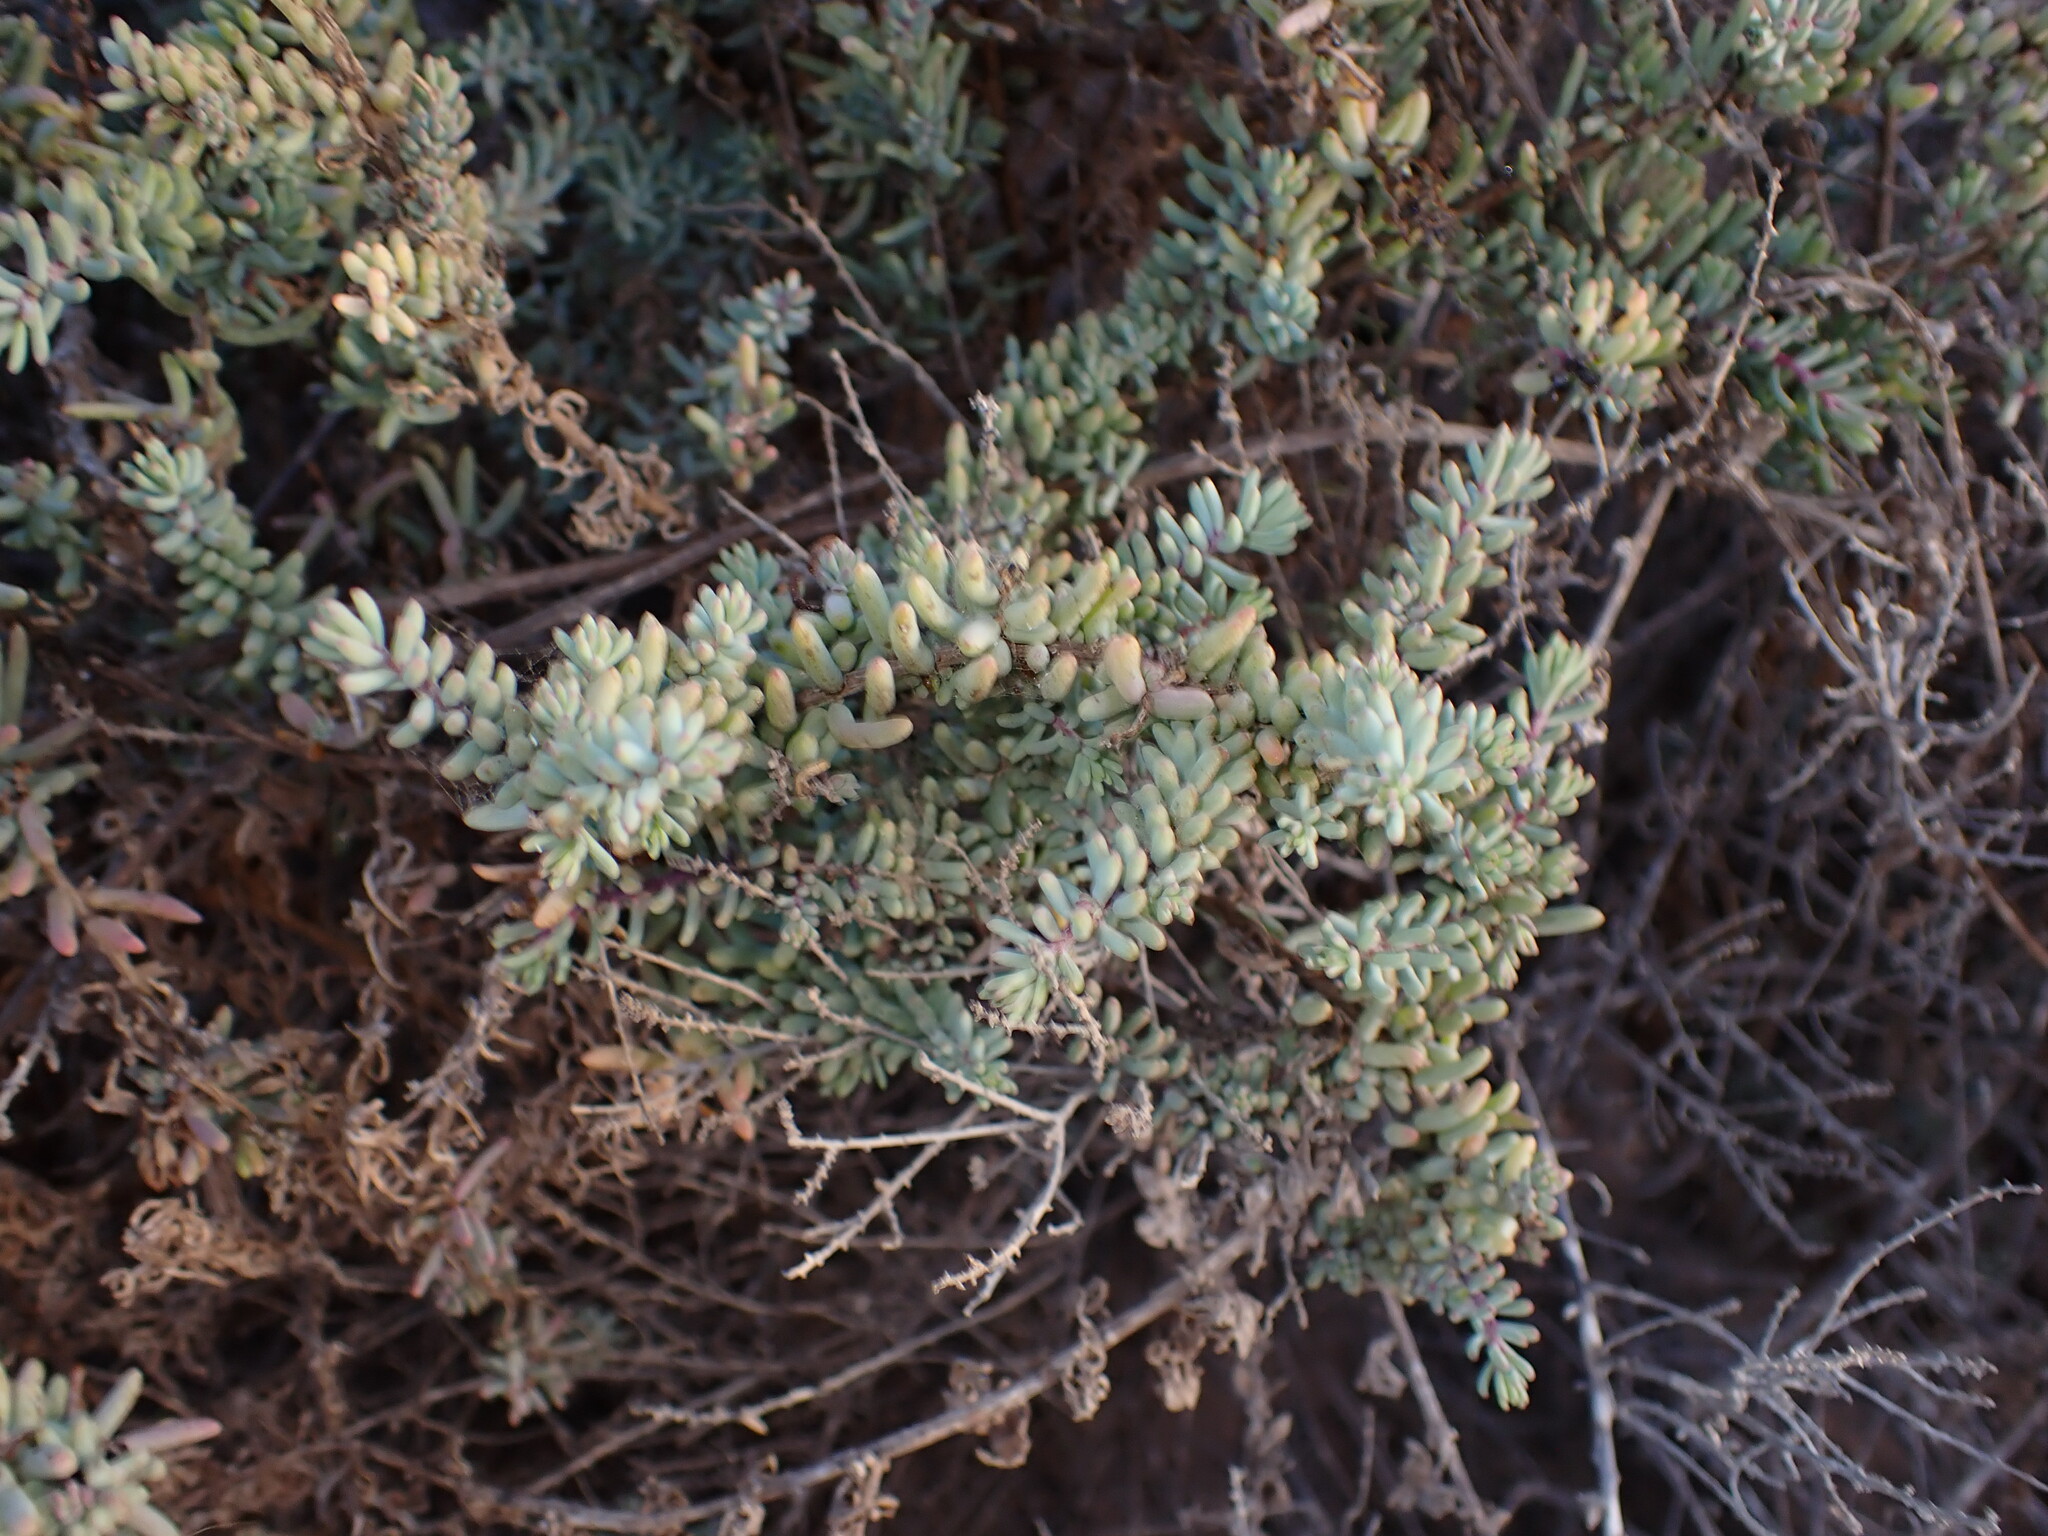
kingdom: Plantae
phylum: Tracheophyta
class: Magnoliopsida
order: Caryophyllales
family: Amaranthaceae
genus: Suaeda
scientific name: Suaeda vermiculata
